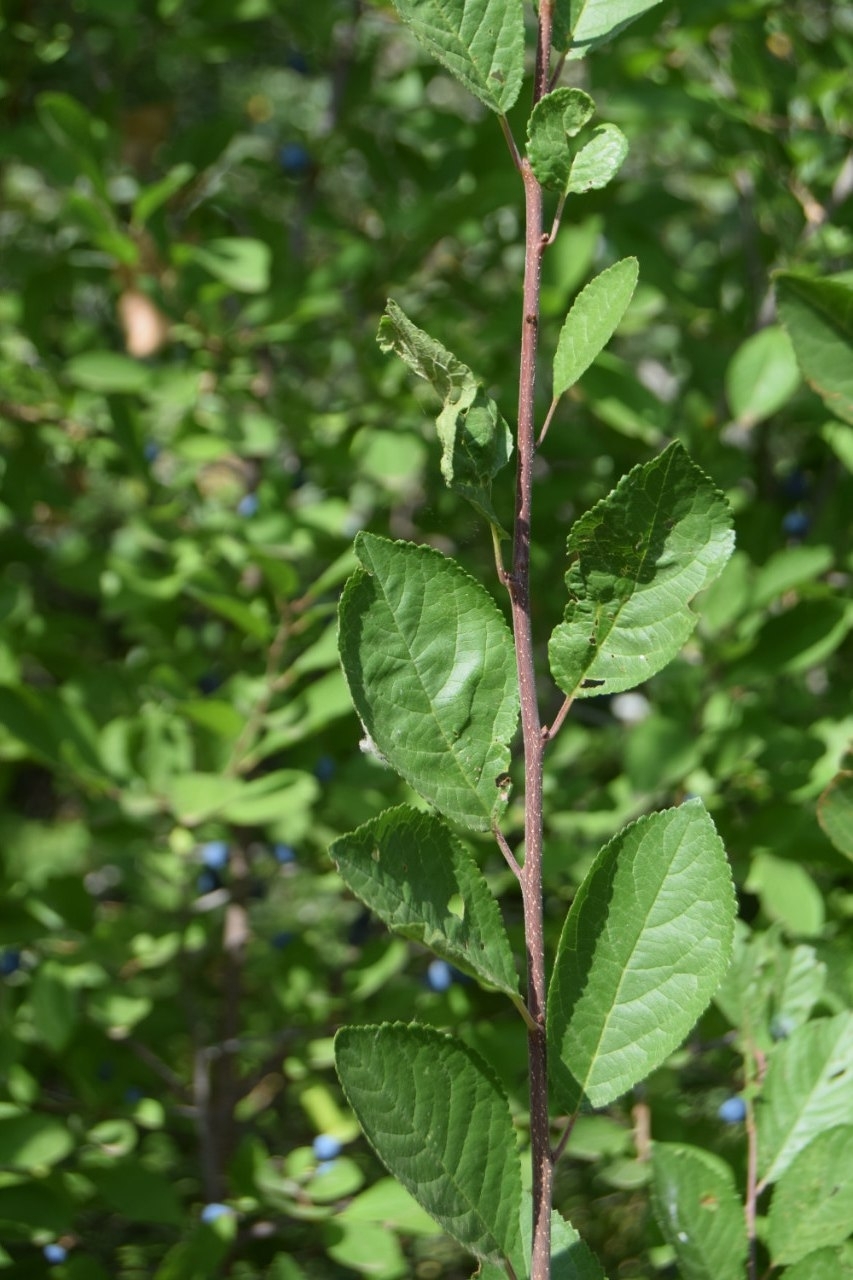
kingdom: Plantae
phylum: Tracheophyta
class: Magnoliopsida
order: Rosales
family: Rosaceae
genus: Prunus
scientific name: Prunus spinosa
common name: Blackthorn
